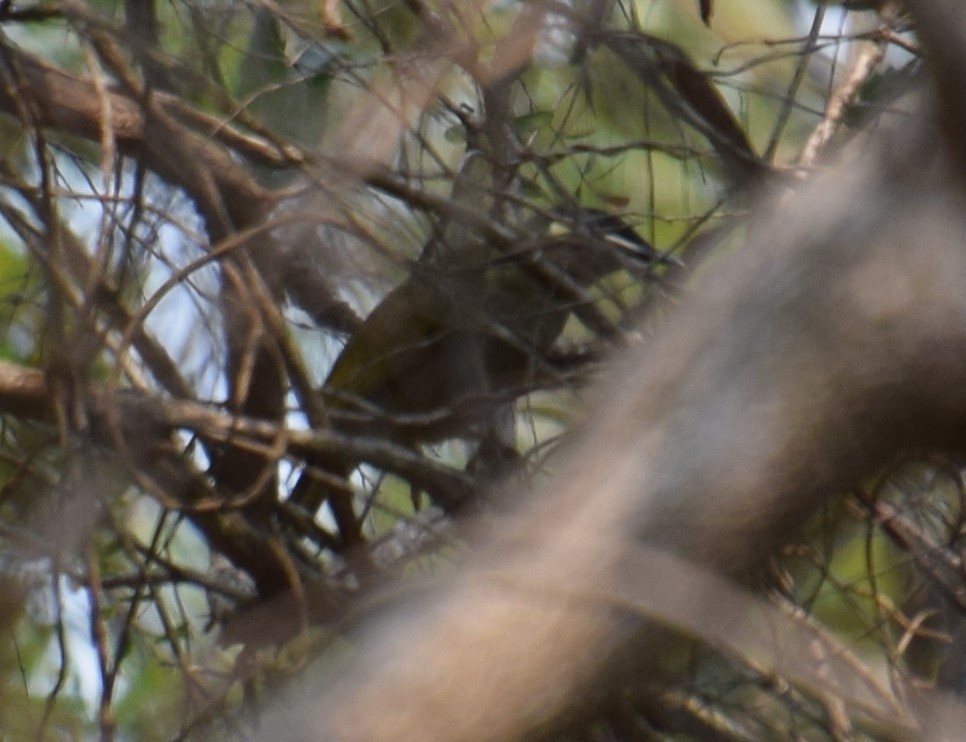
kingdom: Animalia
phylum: Chordata
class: Aves
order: Passeriformes
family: Meliphagidae
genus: Meliphaga
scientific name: Meliphaga lewinii
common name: Lewin's honeyeater
